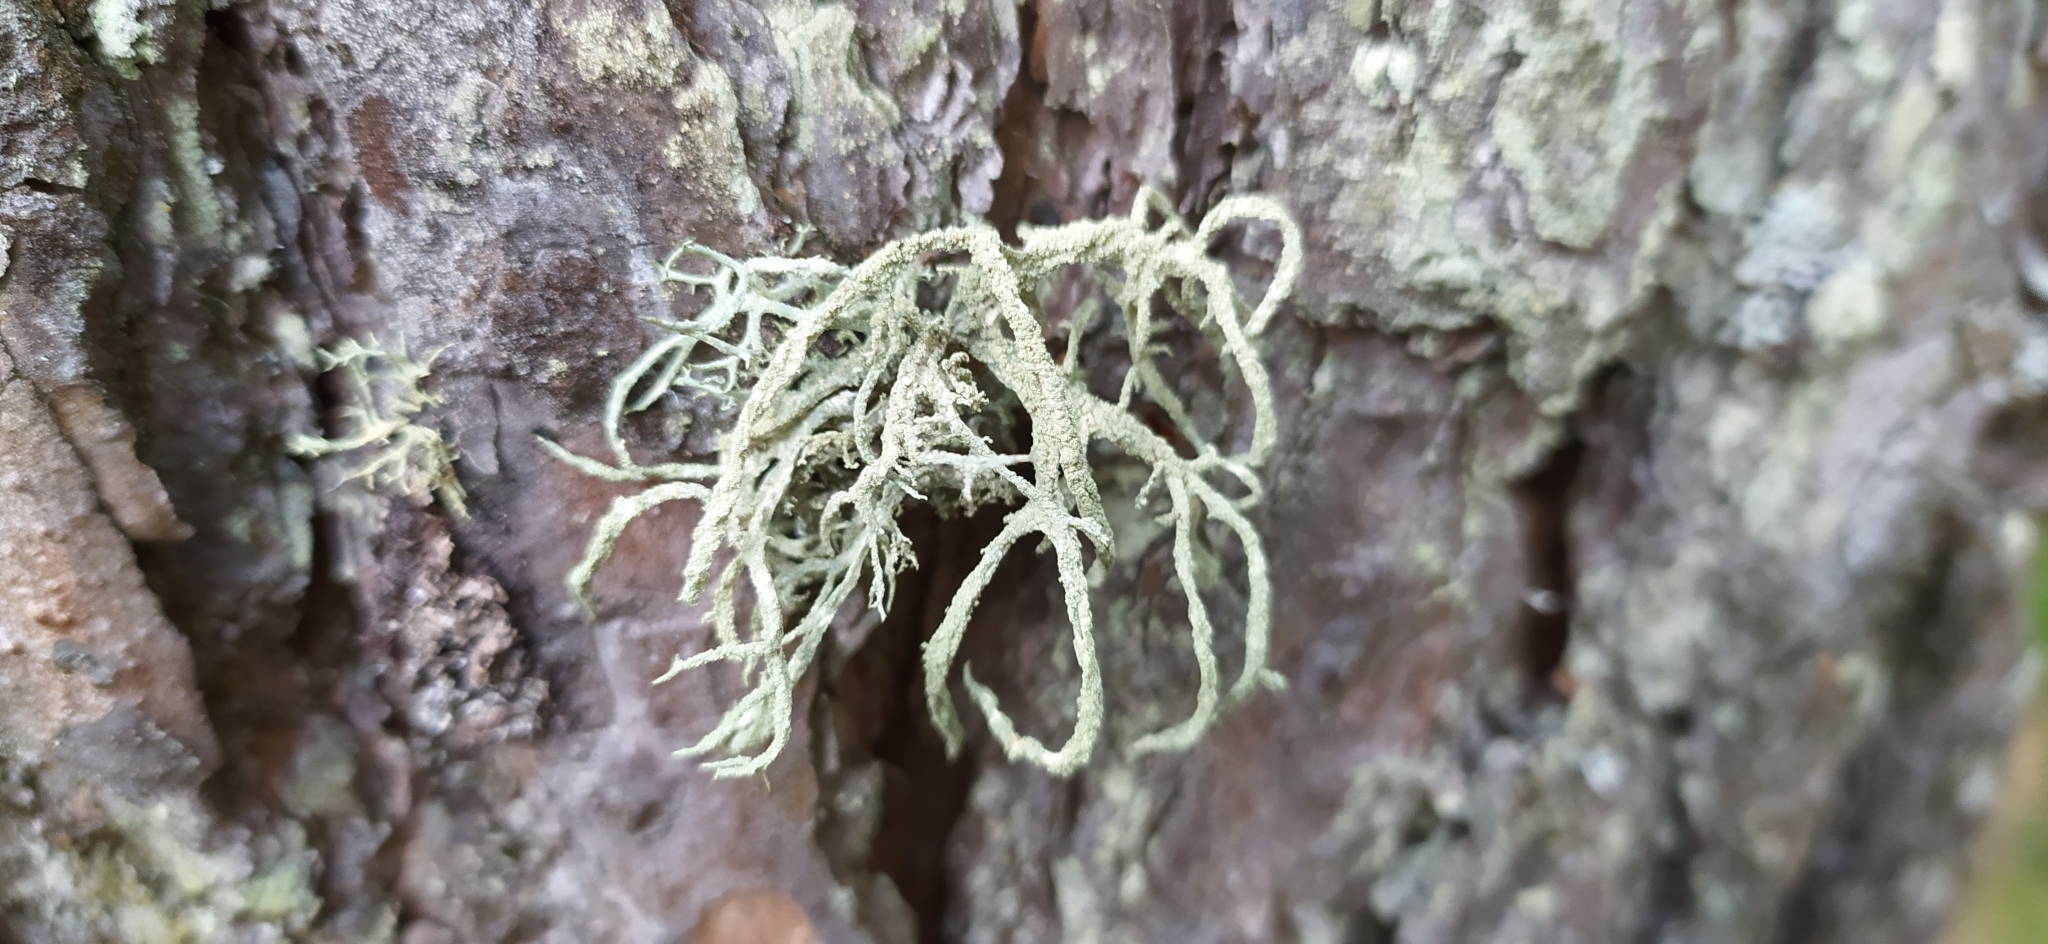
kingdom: Fungi
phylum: Ascomycota
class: Lecanoromycetes
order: Lecanorales
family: Parmeliaceae
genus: Evernia
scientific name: Evernia mesomorpha
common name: Boreal oak moss lichen
